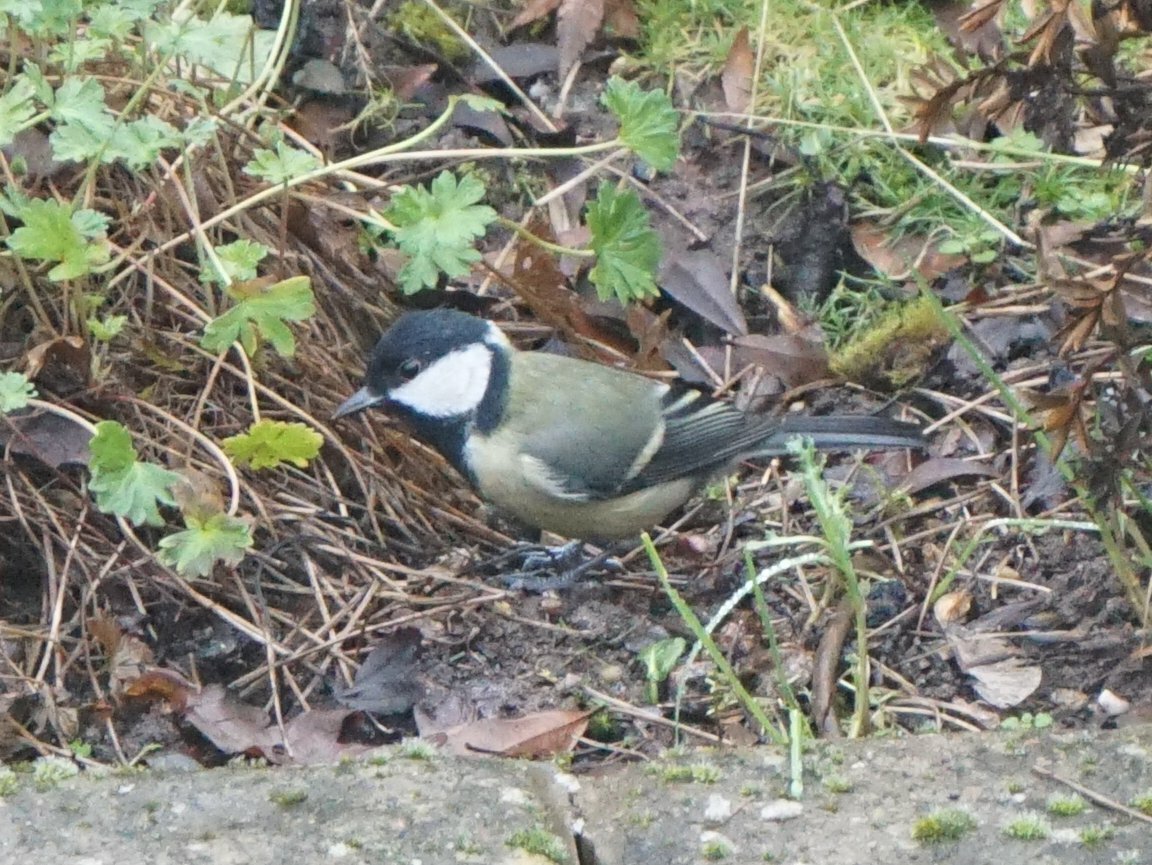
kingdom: Animalia
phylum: Chordata
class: Aves
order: Passeriformes
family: Paridae
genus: Parus
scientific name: Parus major
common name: Great tit
